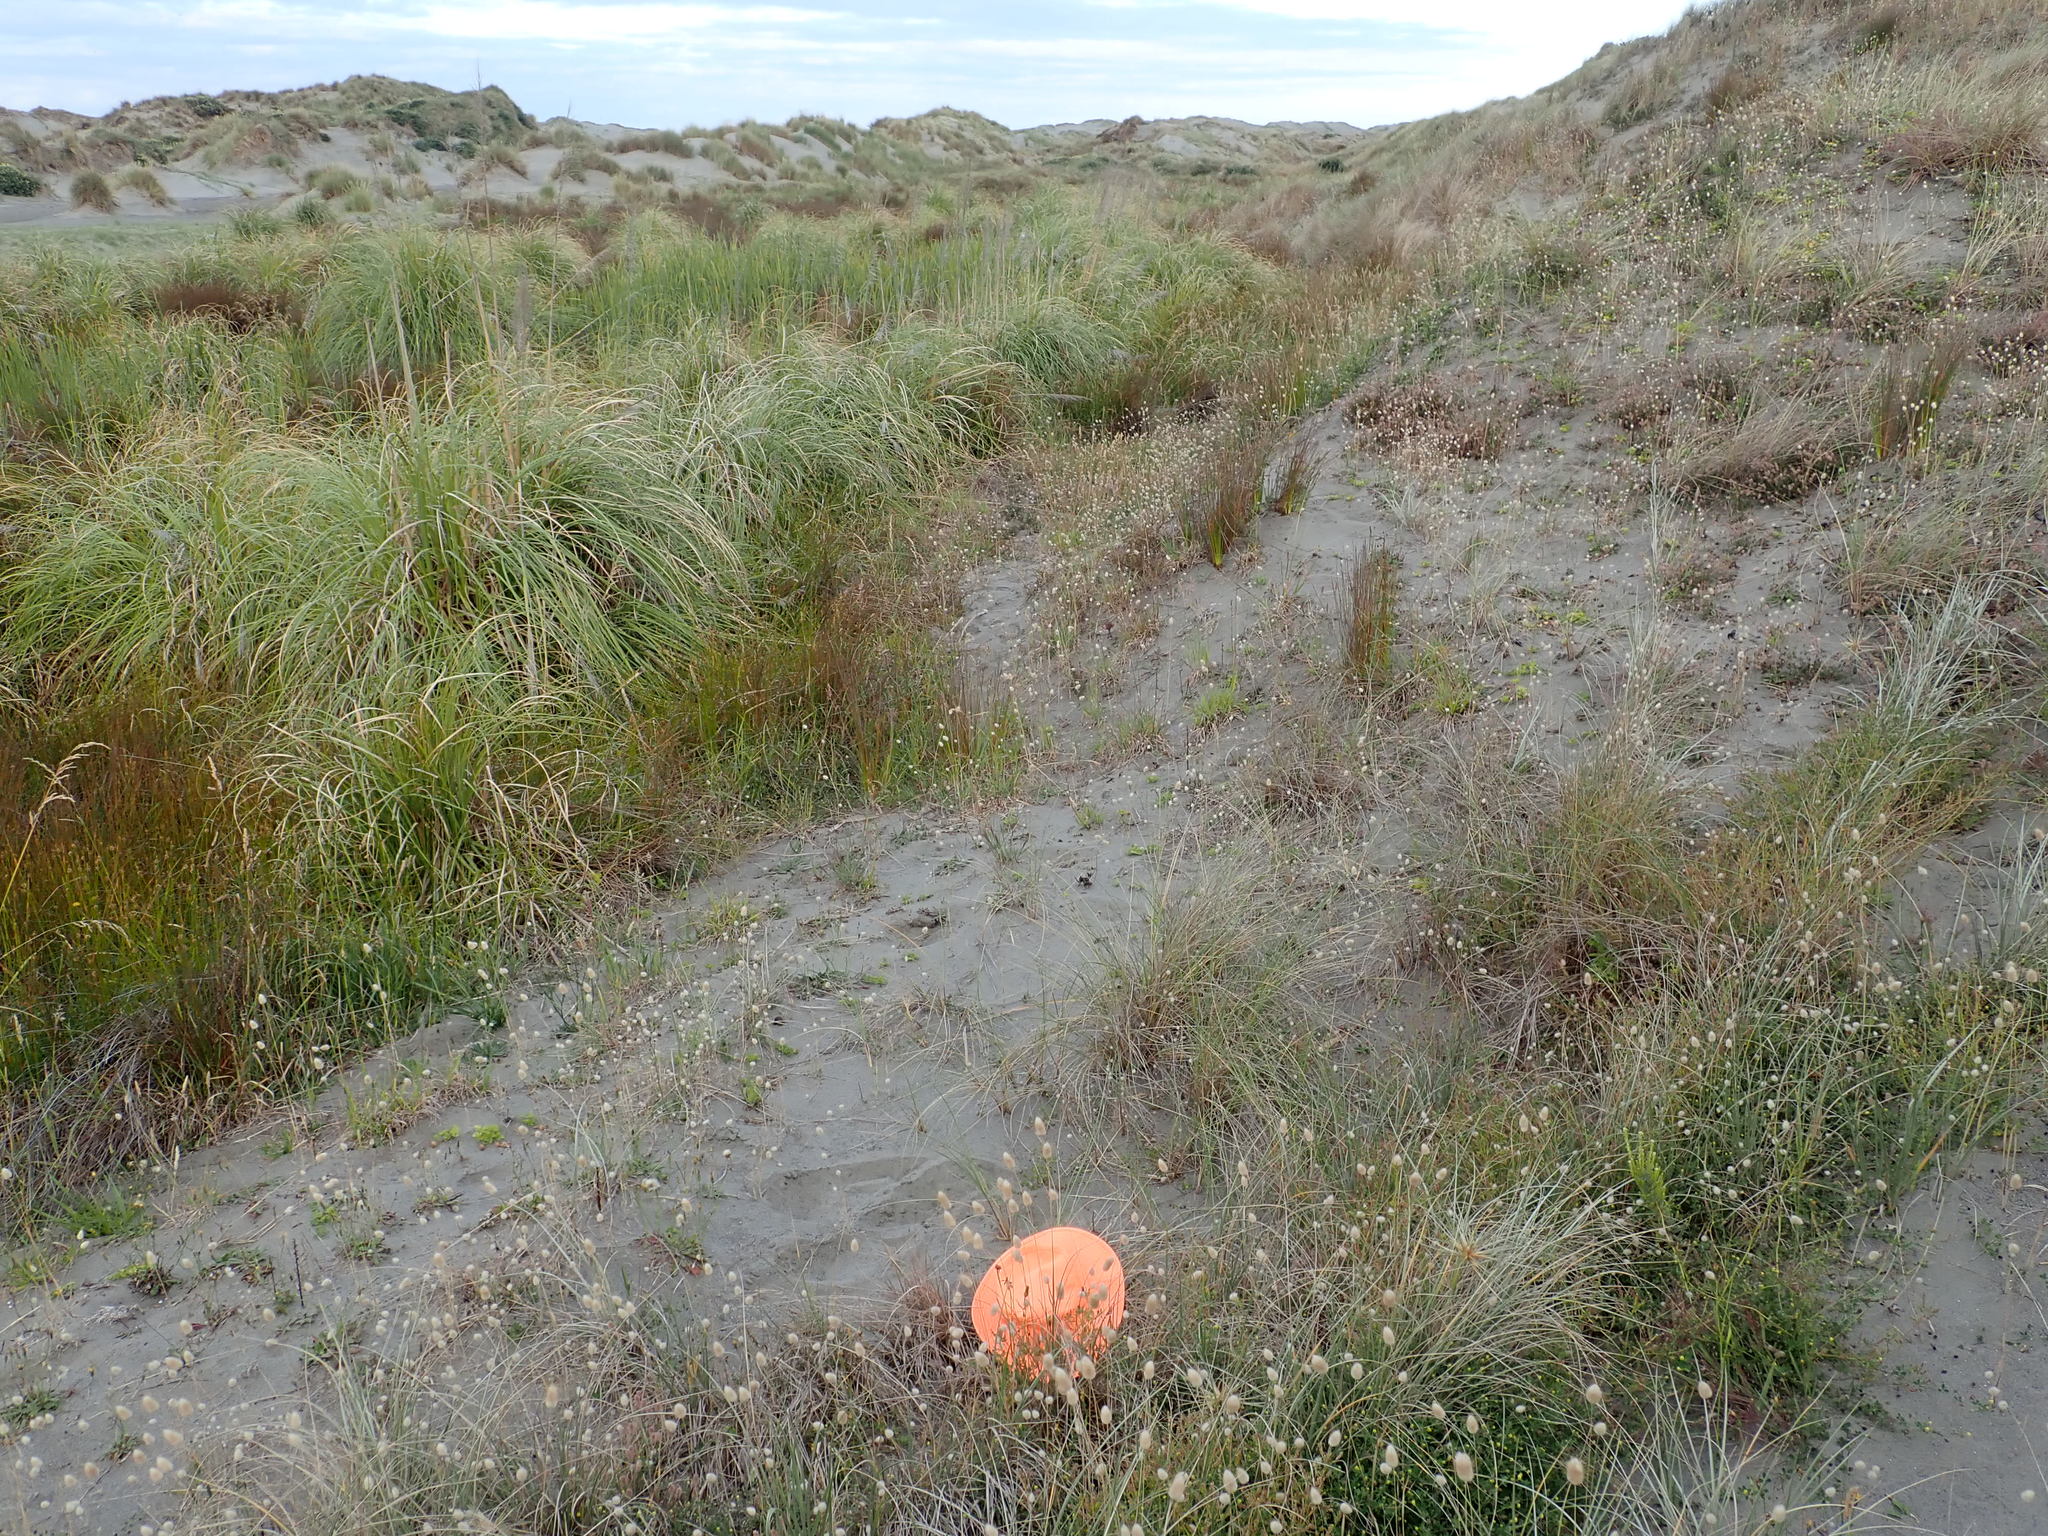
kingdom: Animalia
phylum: Arthropoda
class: Arachnida
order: Araneae
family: Theridiidae
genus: Latrodectus
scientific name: Latrodectus katipo
